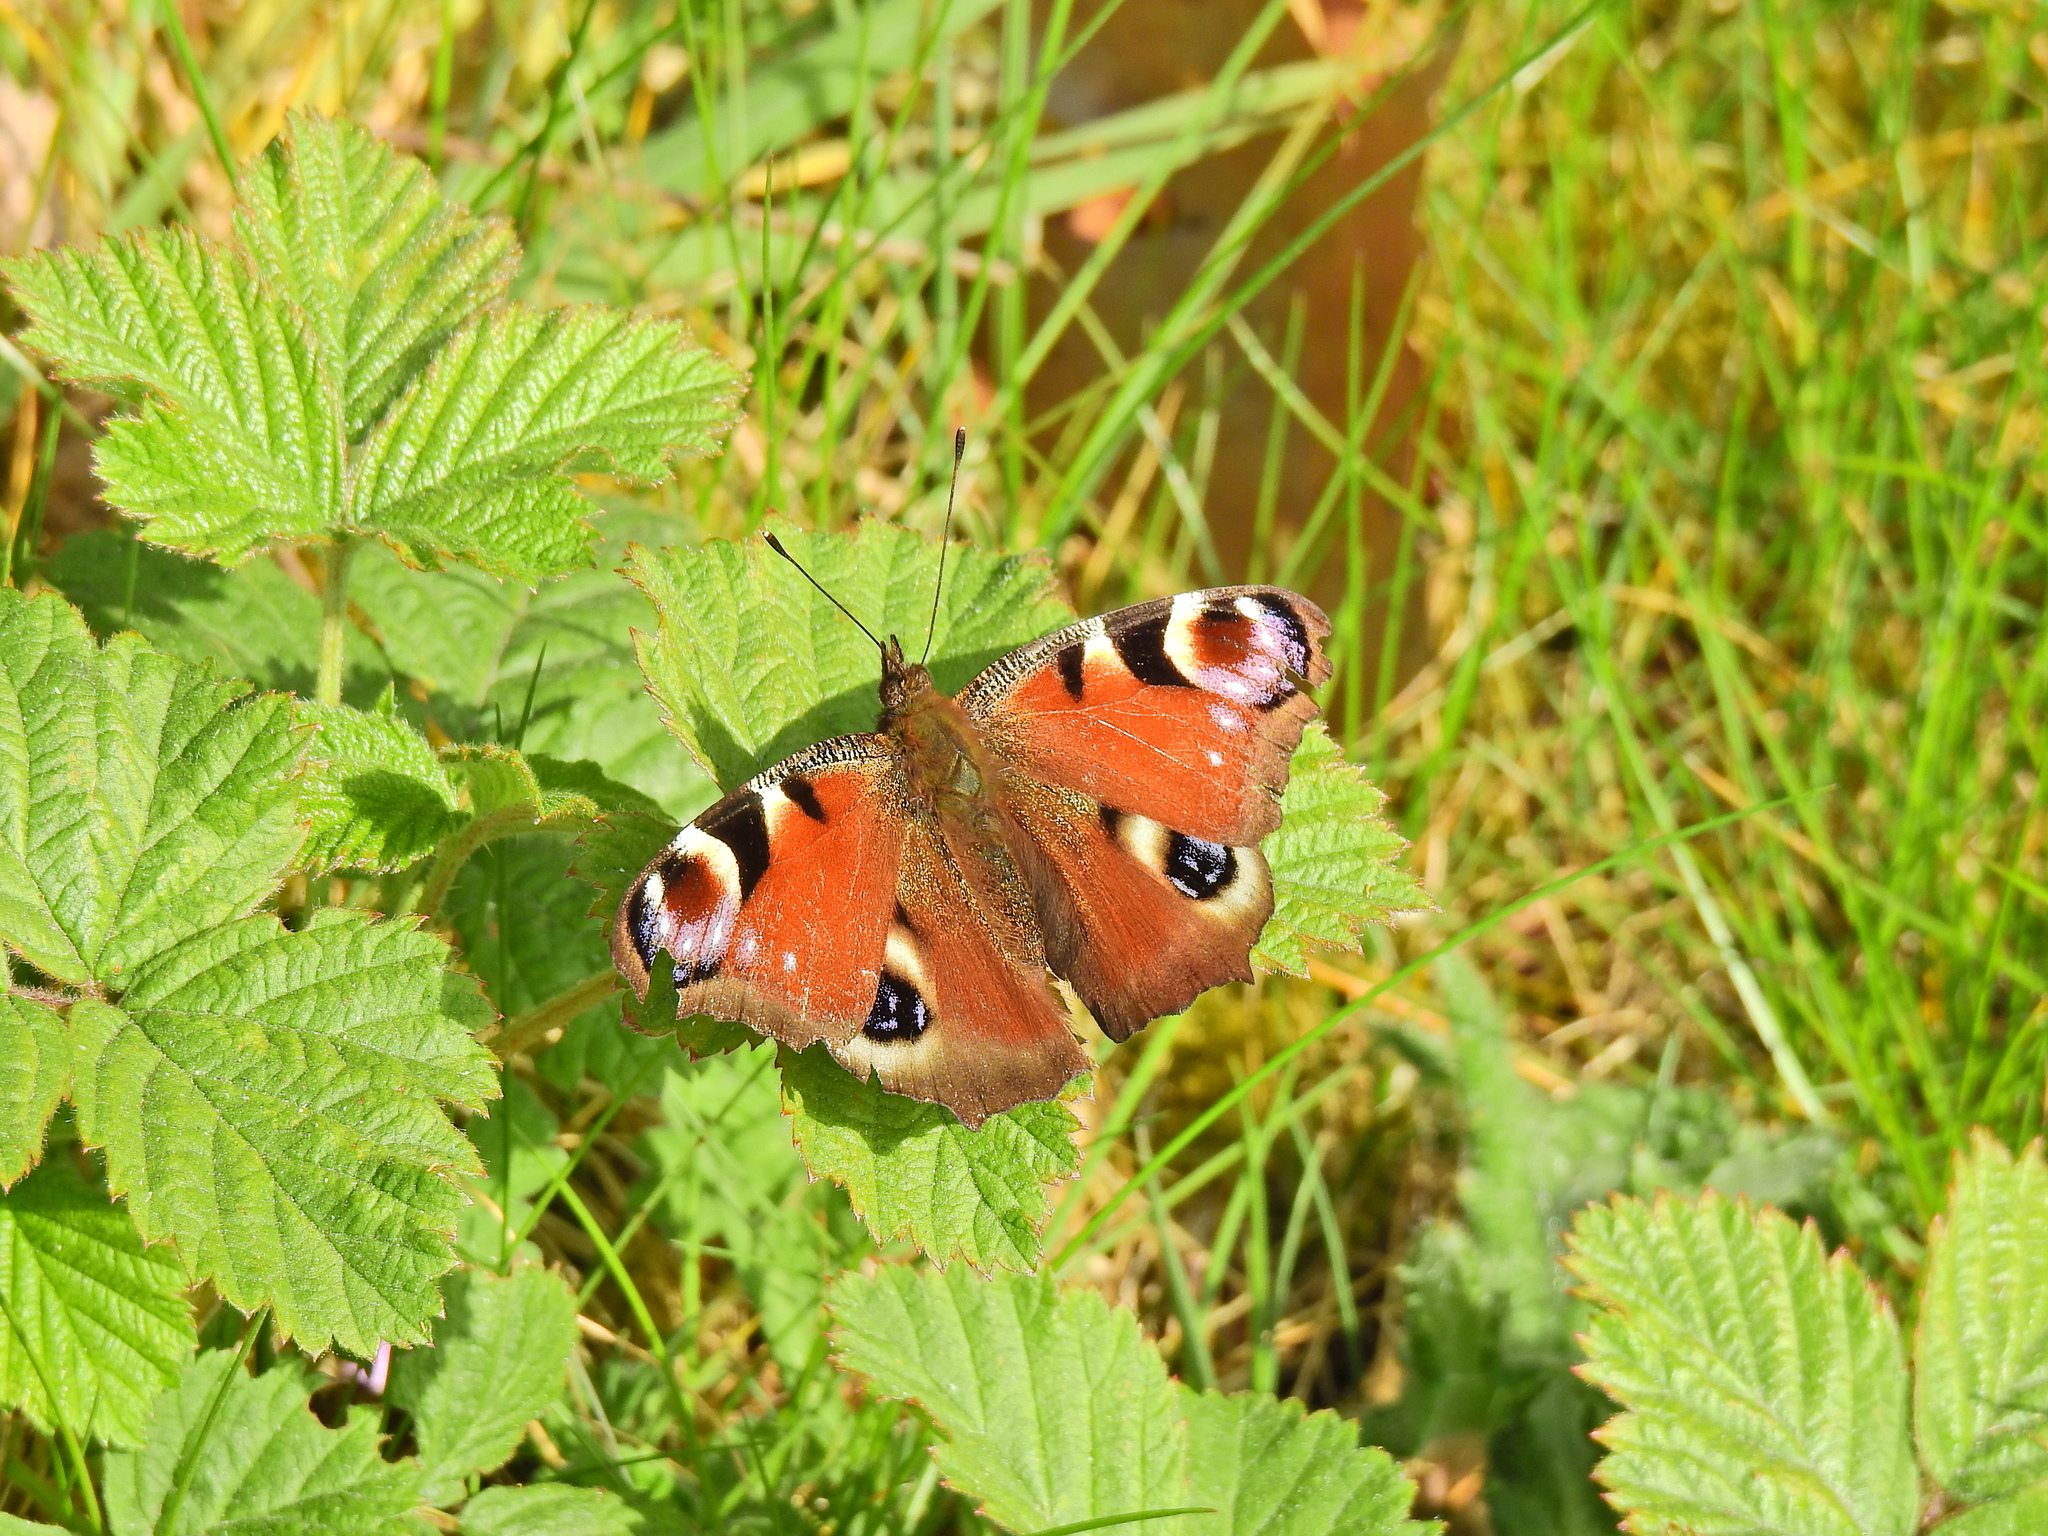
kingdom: Animalia
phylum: Arthropoda
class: Insecta
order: Lepidoptera
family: Nymphalidae
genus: Aglais
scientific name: Aglais io
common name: Peacock
